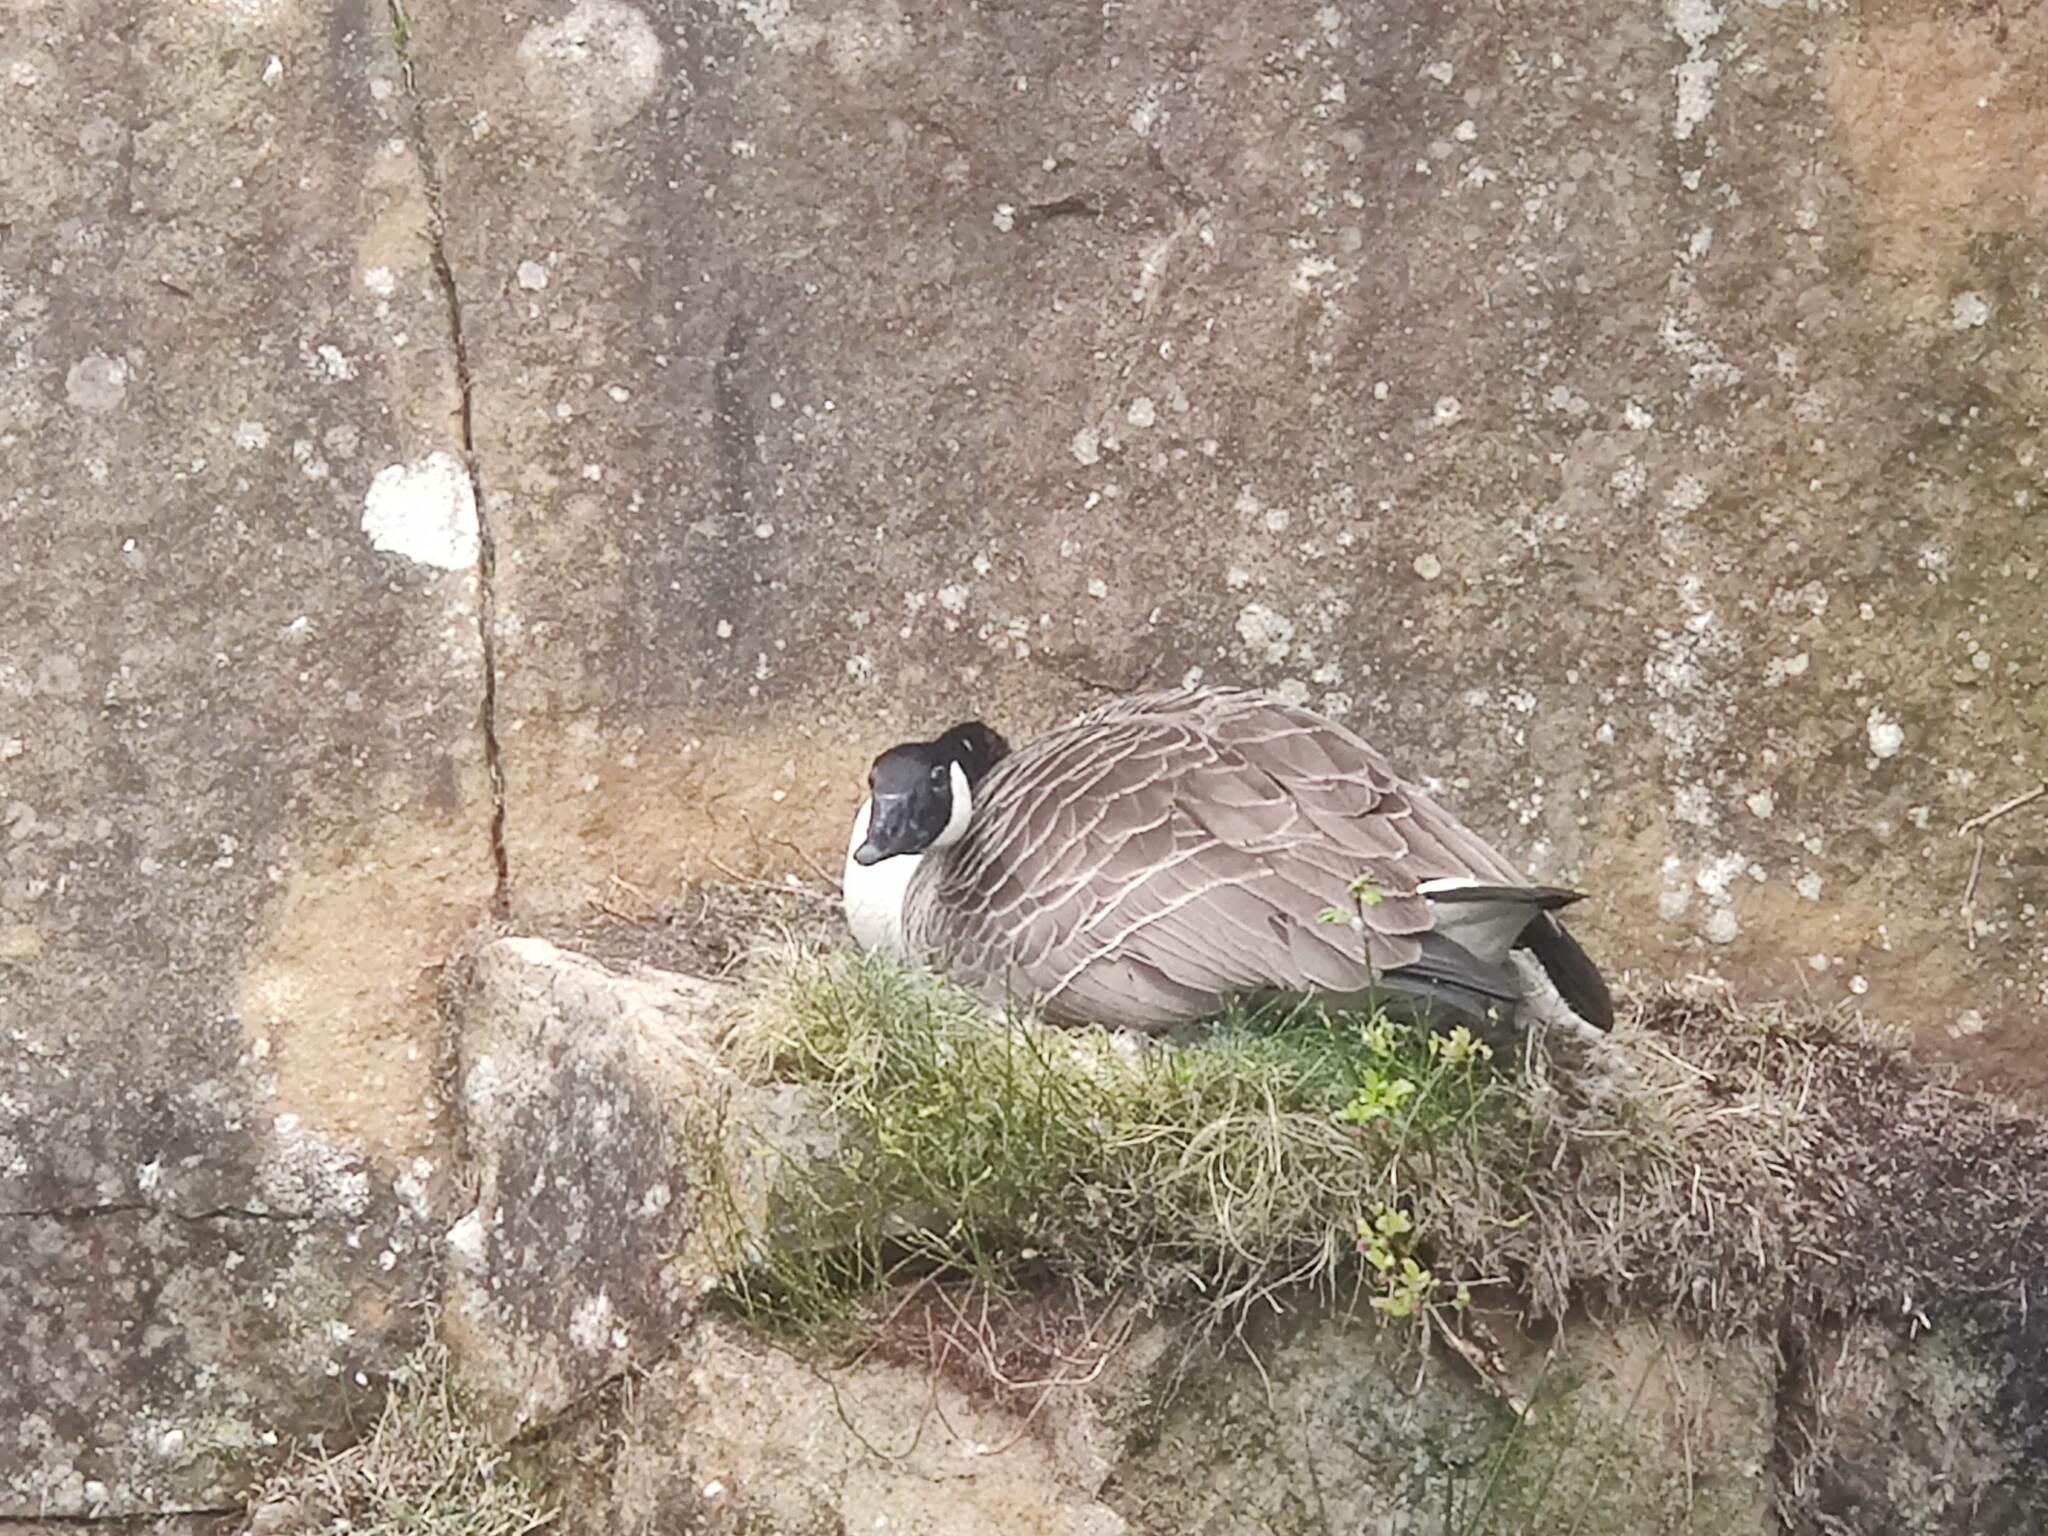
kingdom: Animalia
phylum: Chordata
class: Aves
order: Anseriformes
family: Anatidae
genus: Branta
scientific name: Branta canadensis
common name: Canada goose
